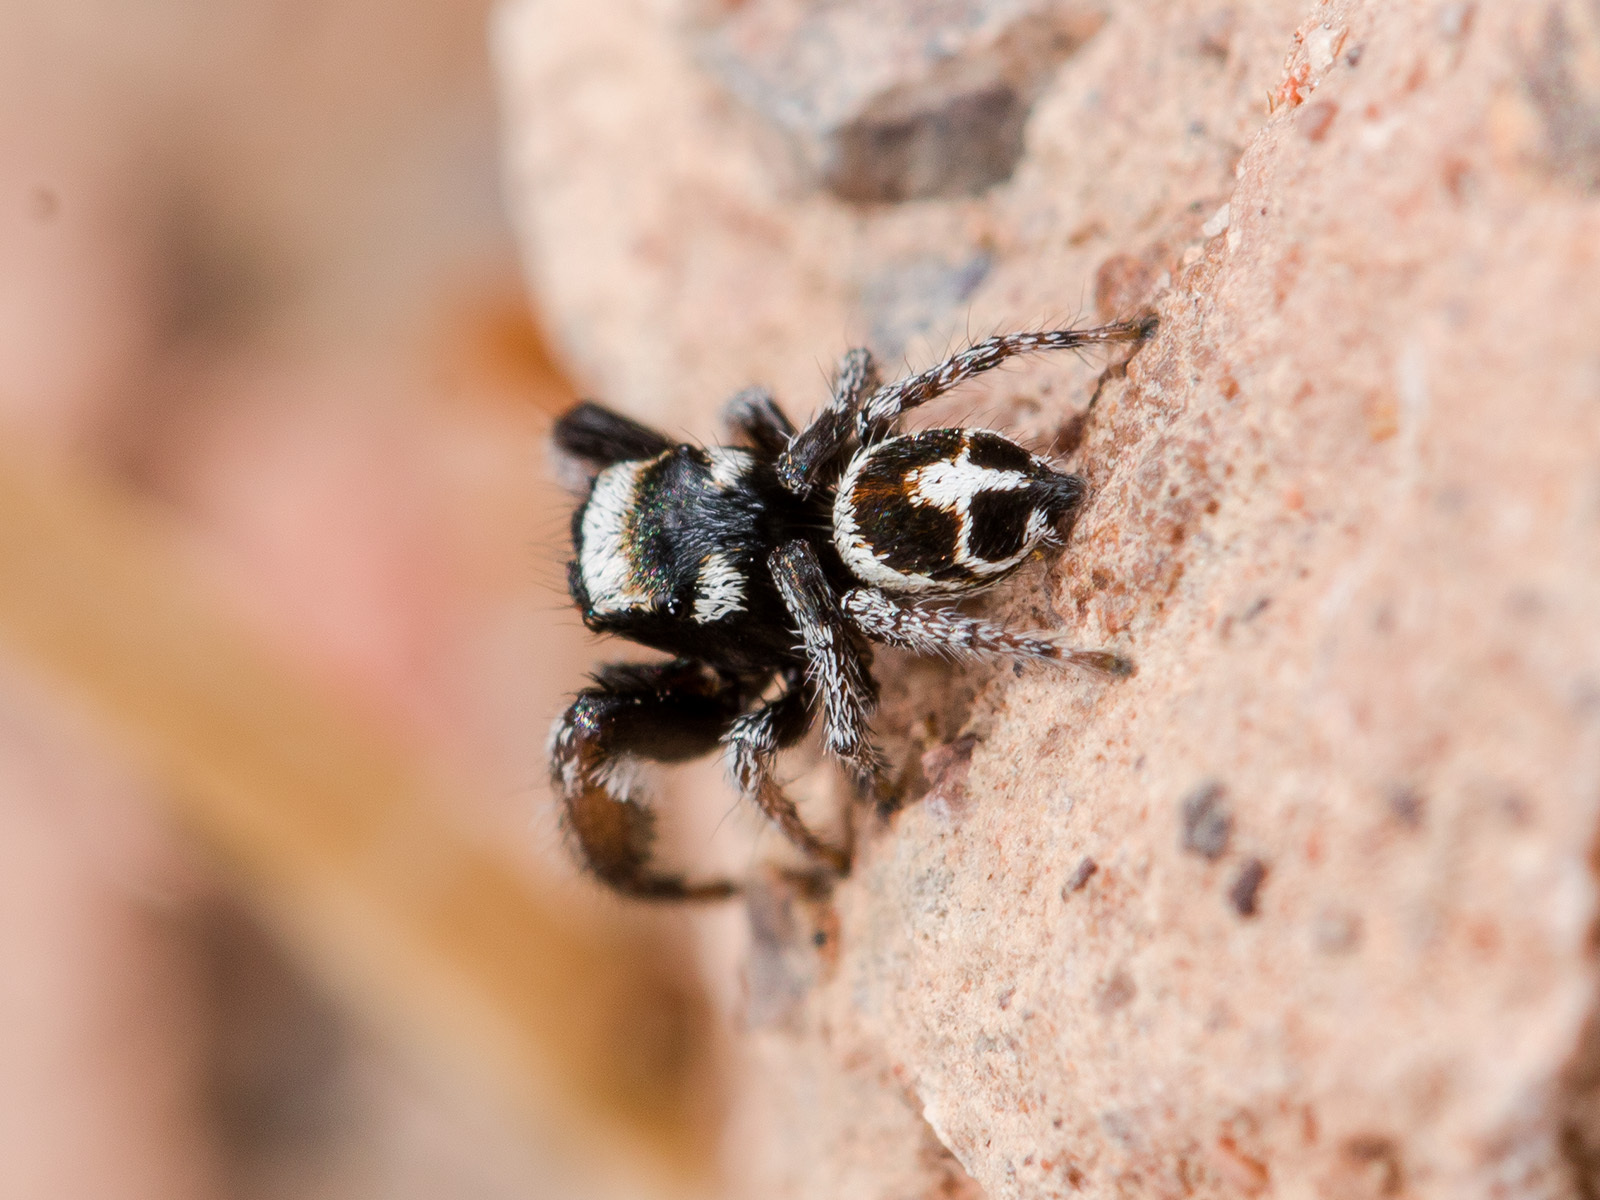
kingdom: Animalia
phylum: Arthropoda
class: Arachnida
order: Araneae
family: Salticidae
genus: Pellenes
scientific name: Pellenes geniculatus
